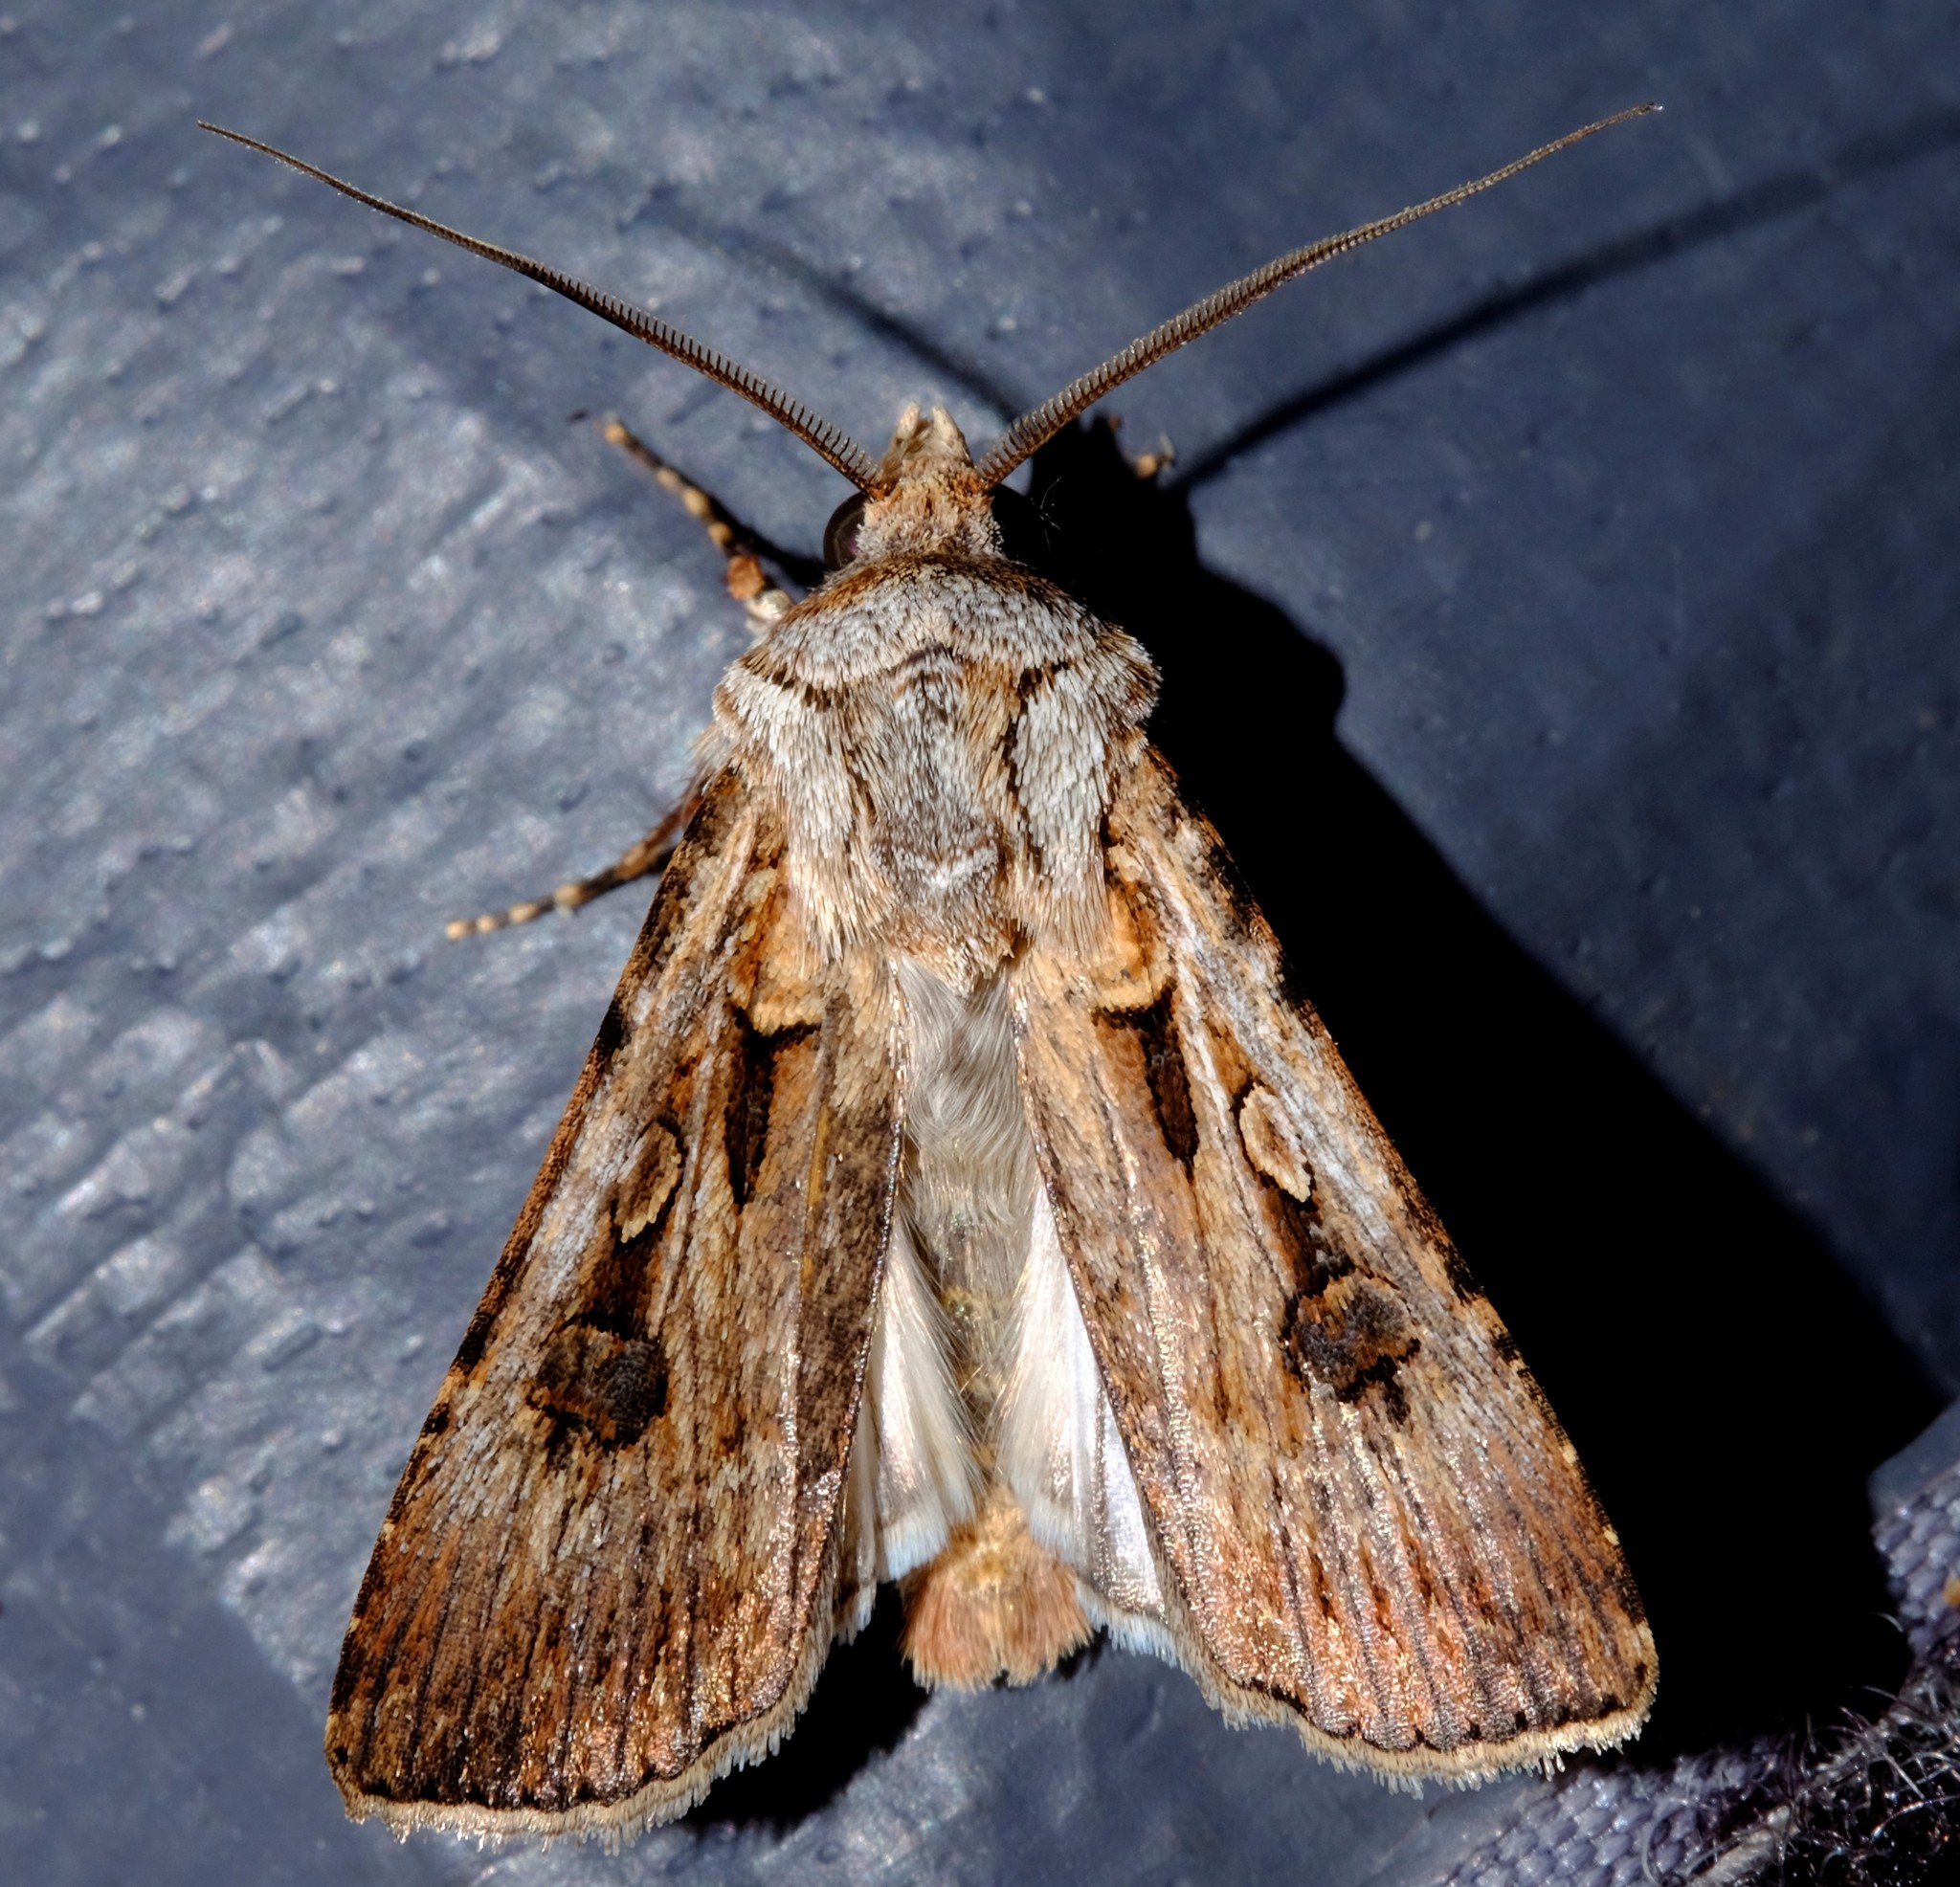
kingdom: Animalia
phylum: Arthropoda
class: Insecta
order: Lepidoptera
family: Noctuidae
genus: Agrotis
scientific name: Agrotis munda
